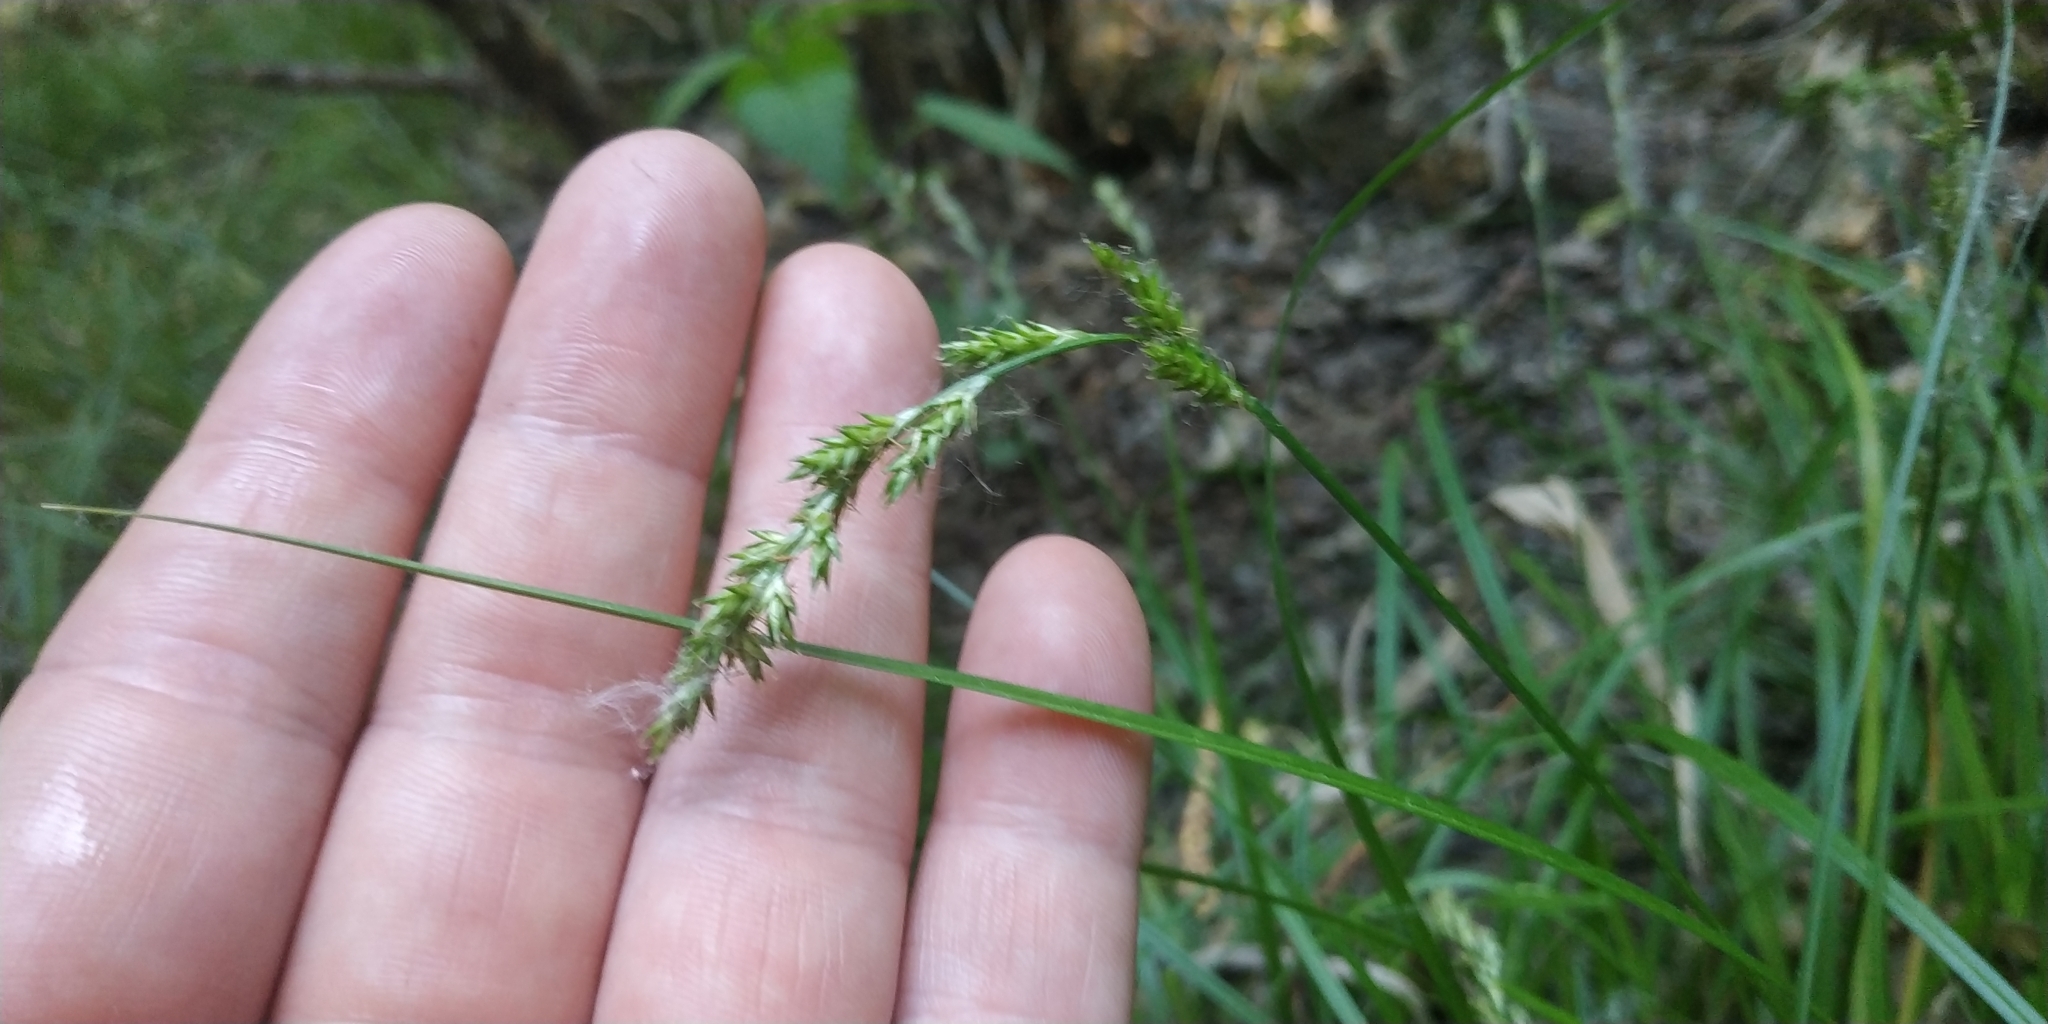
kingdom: Plantae
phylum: Tracheophyta
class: Liliopsida
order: Poales
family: Cyperaceae
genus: Carex
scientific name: Carex elongata
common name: Elongated sedge
